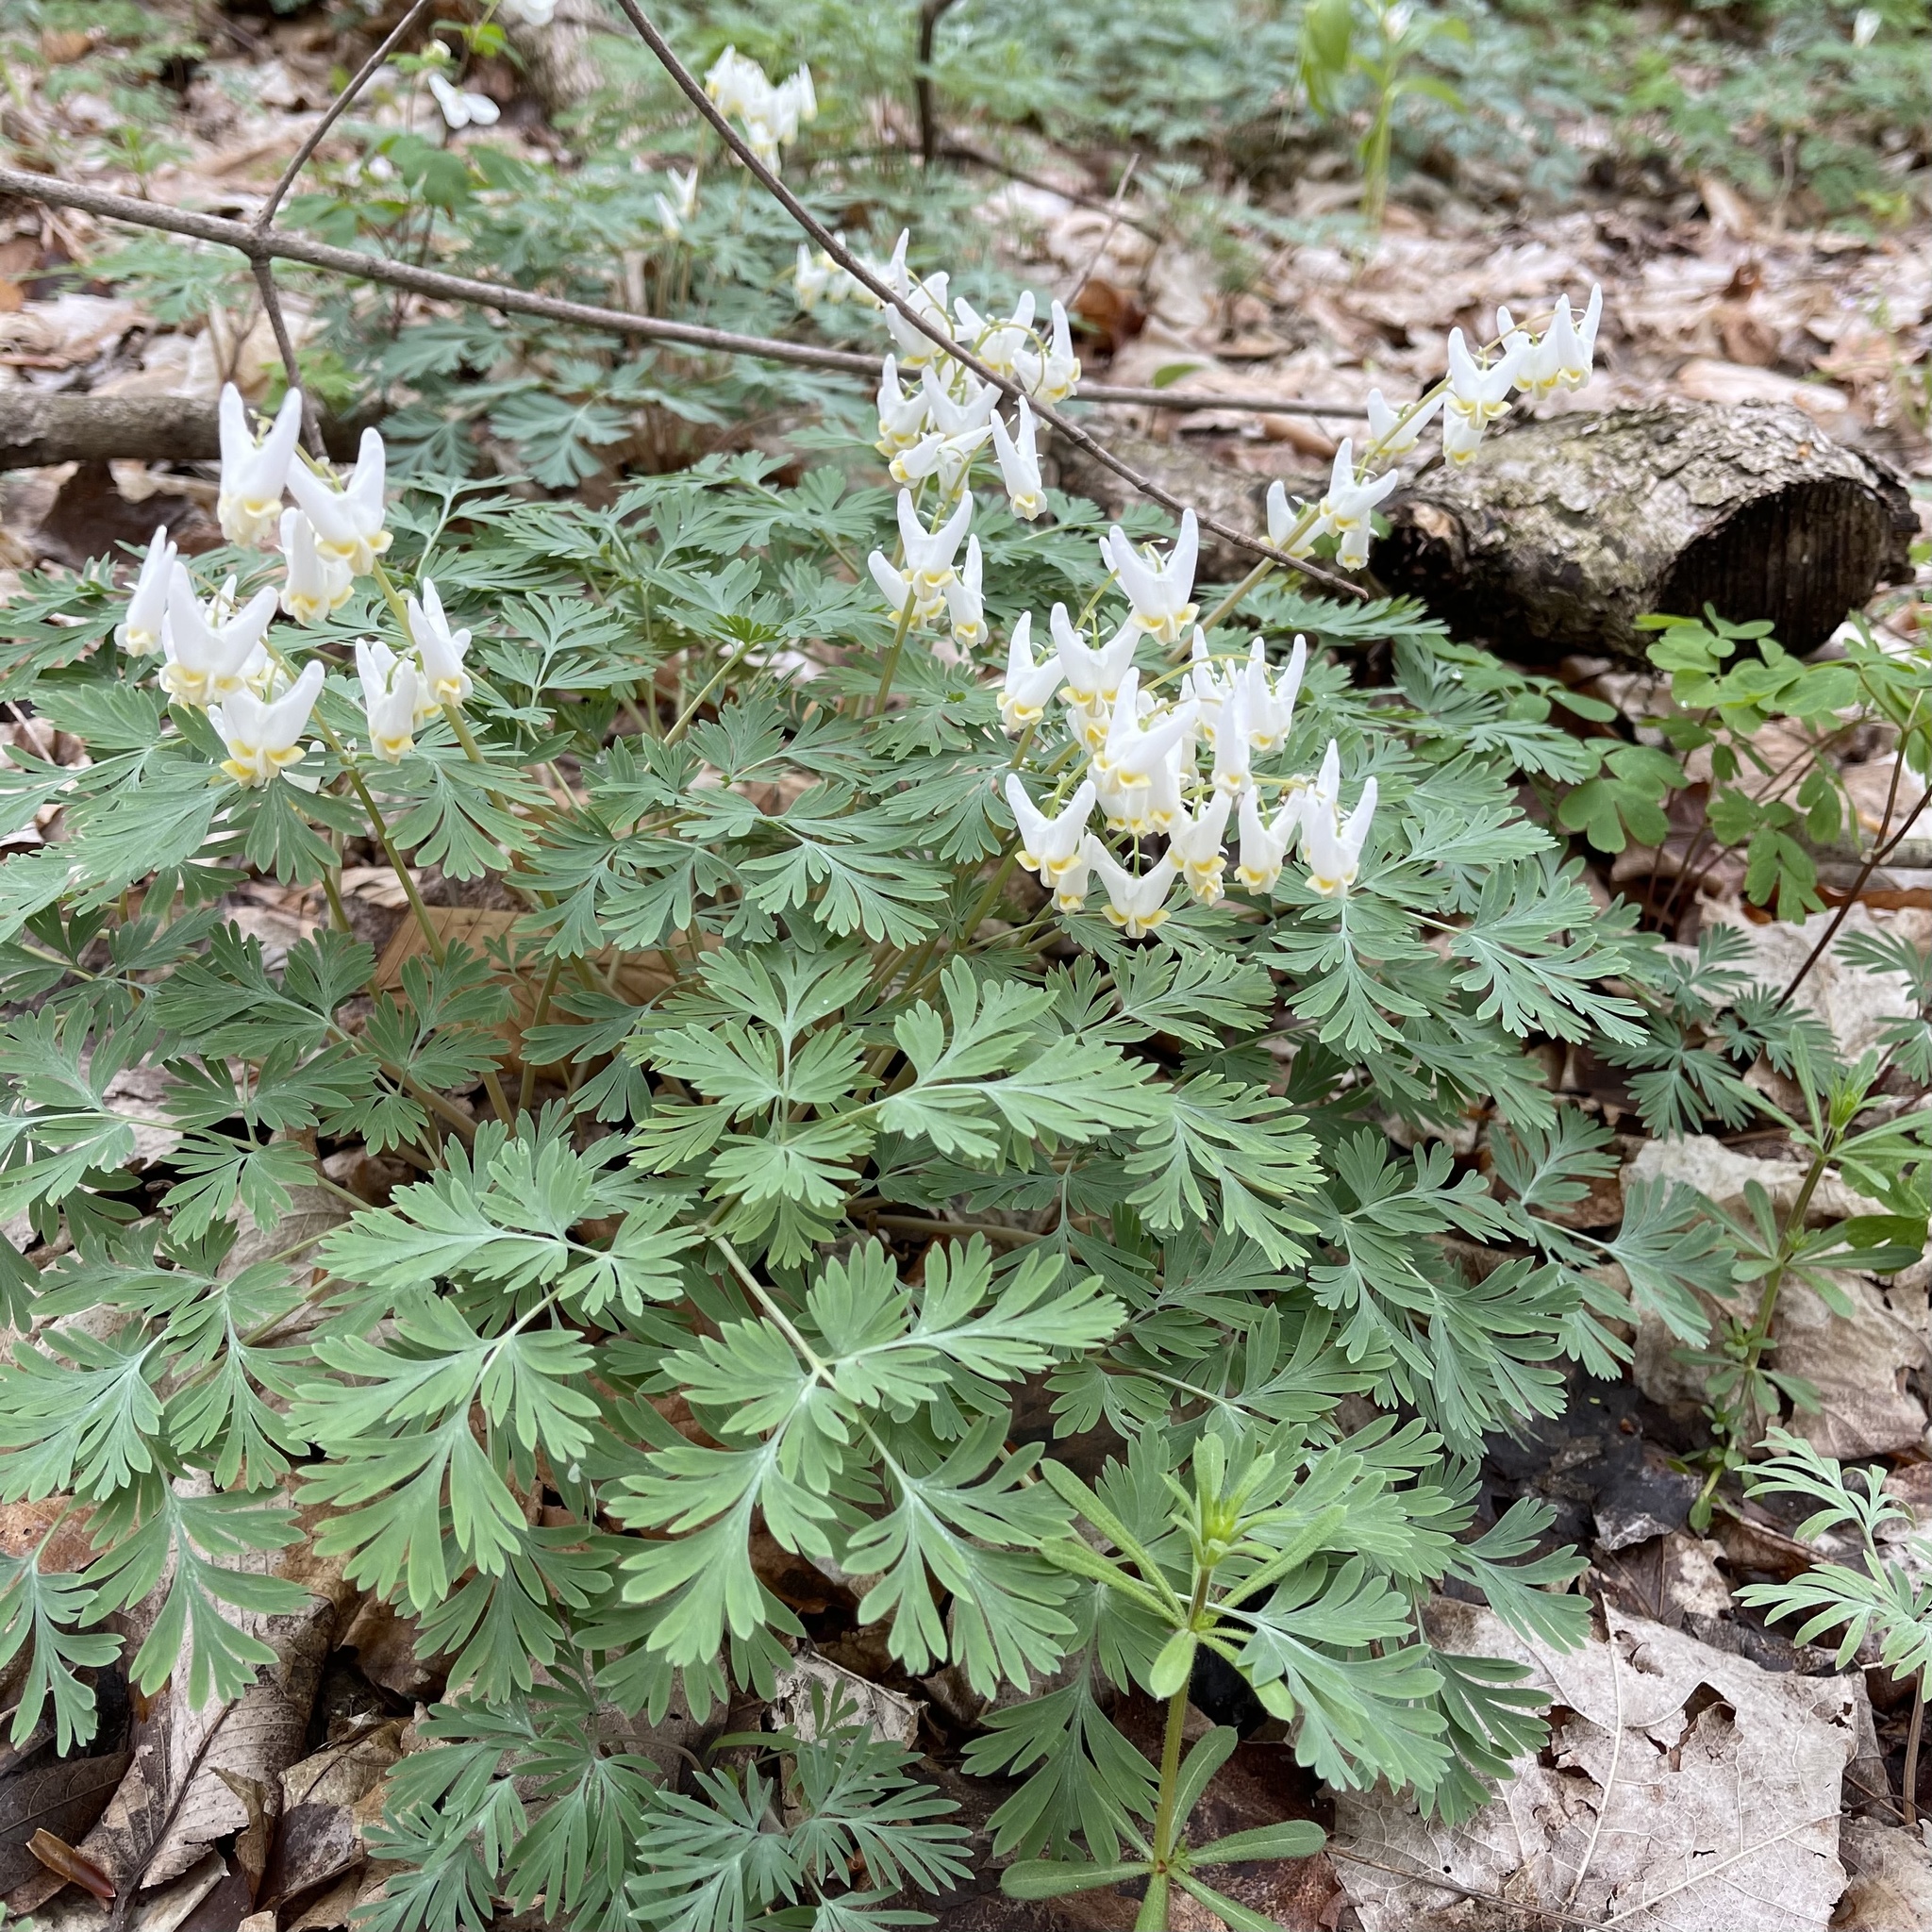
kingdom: Plantae
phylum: Tracheophyta
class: Magnoliopsida
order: Ranunculales
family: Papaveraceae
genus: Dicentra
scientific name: Dicentra cucullaria
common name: Dutchman's breeches
